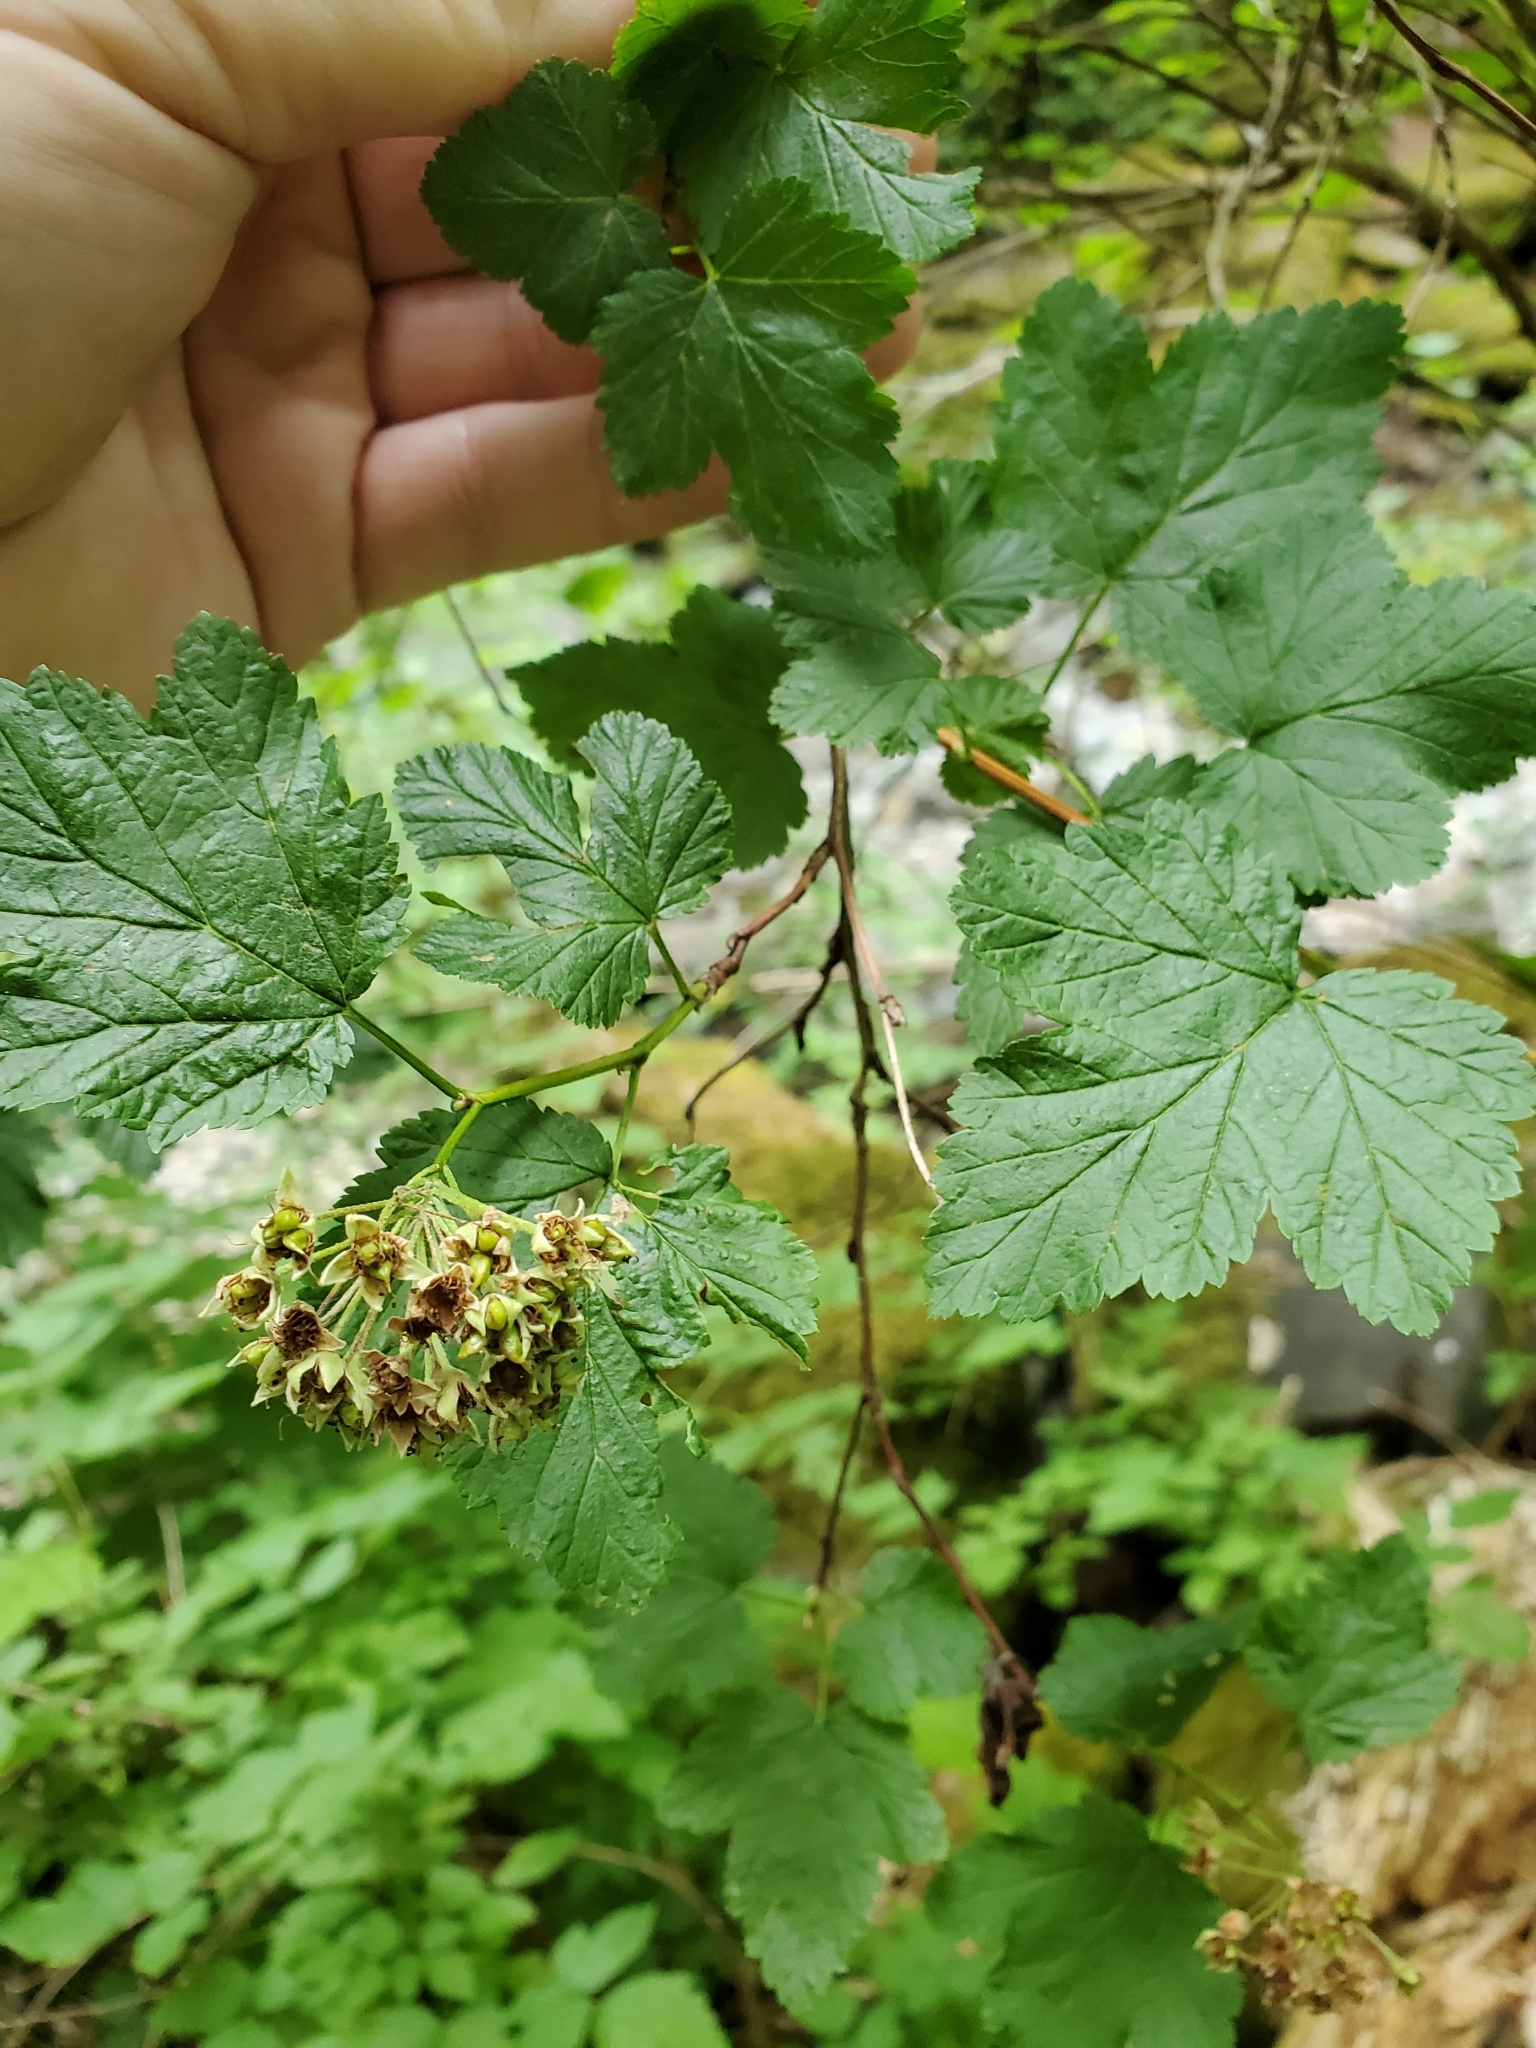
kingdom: Plantae
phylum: Tracheophyta
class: Magnoliopsida
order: Rosales
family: Rosaceae
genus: Physocarpus
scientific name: Physocarpus capitatus
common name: Pacific ninebark
